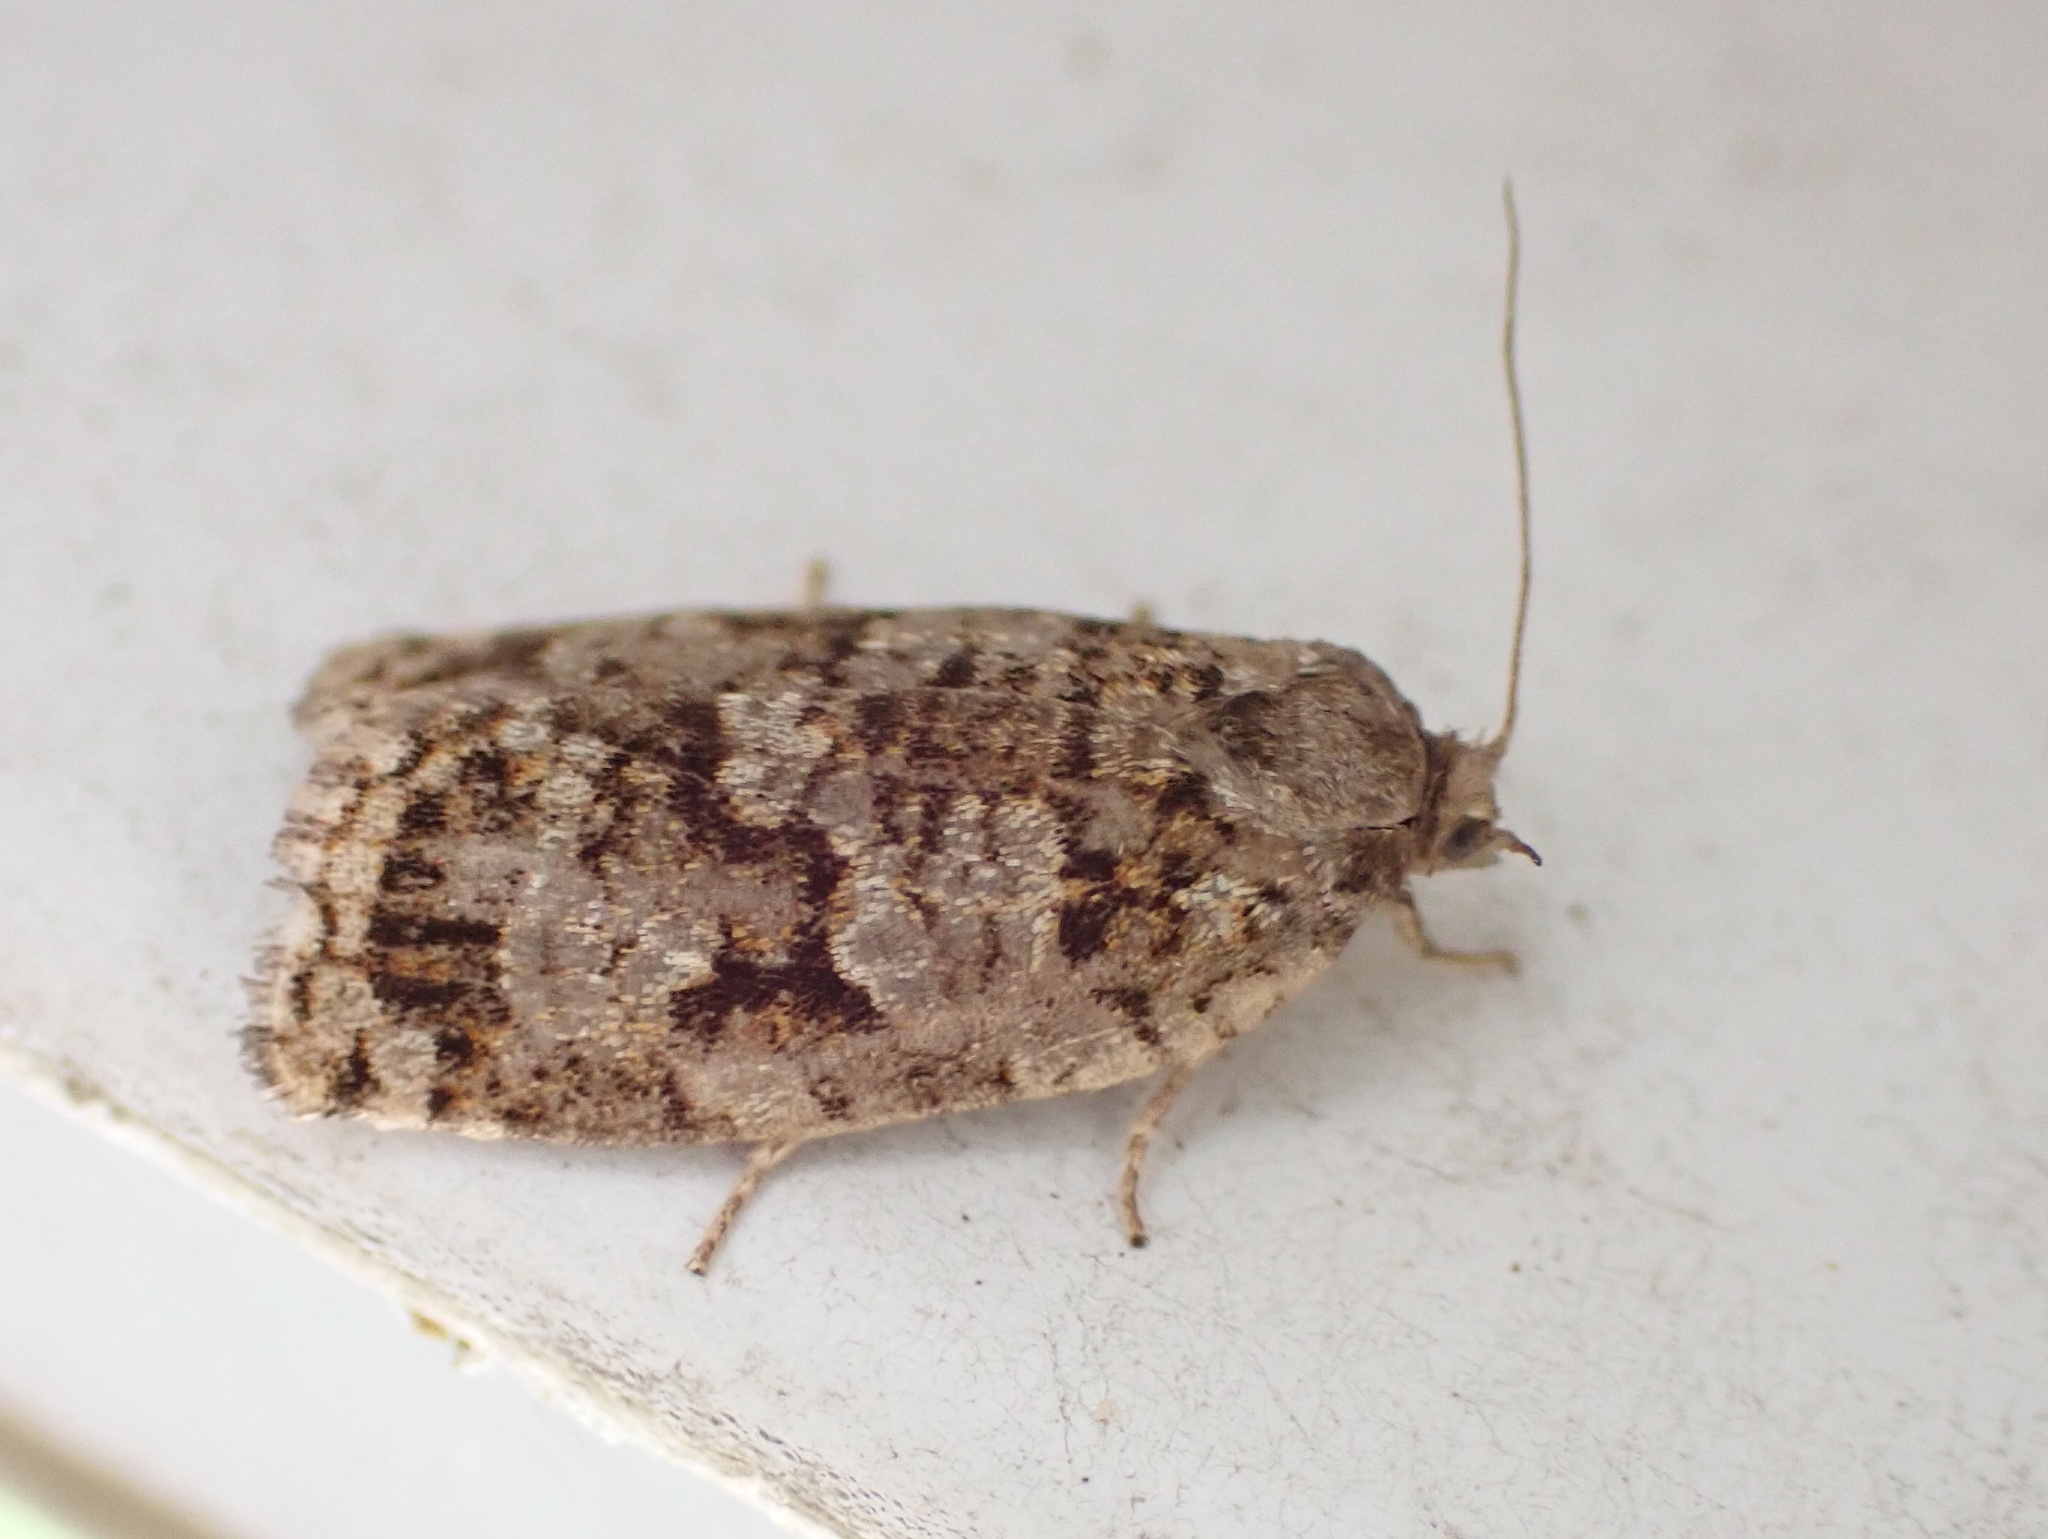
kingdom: Animalia
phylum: Arthropoda
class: Insecta
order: Lepidoptera
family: Tortricidae
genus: Choristoneura
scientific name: Choristoneura fumiferana
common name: Spruce budworm
